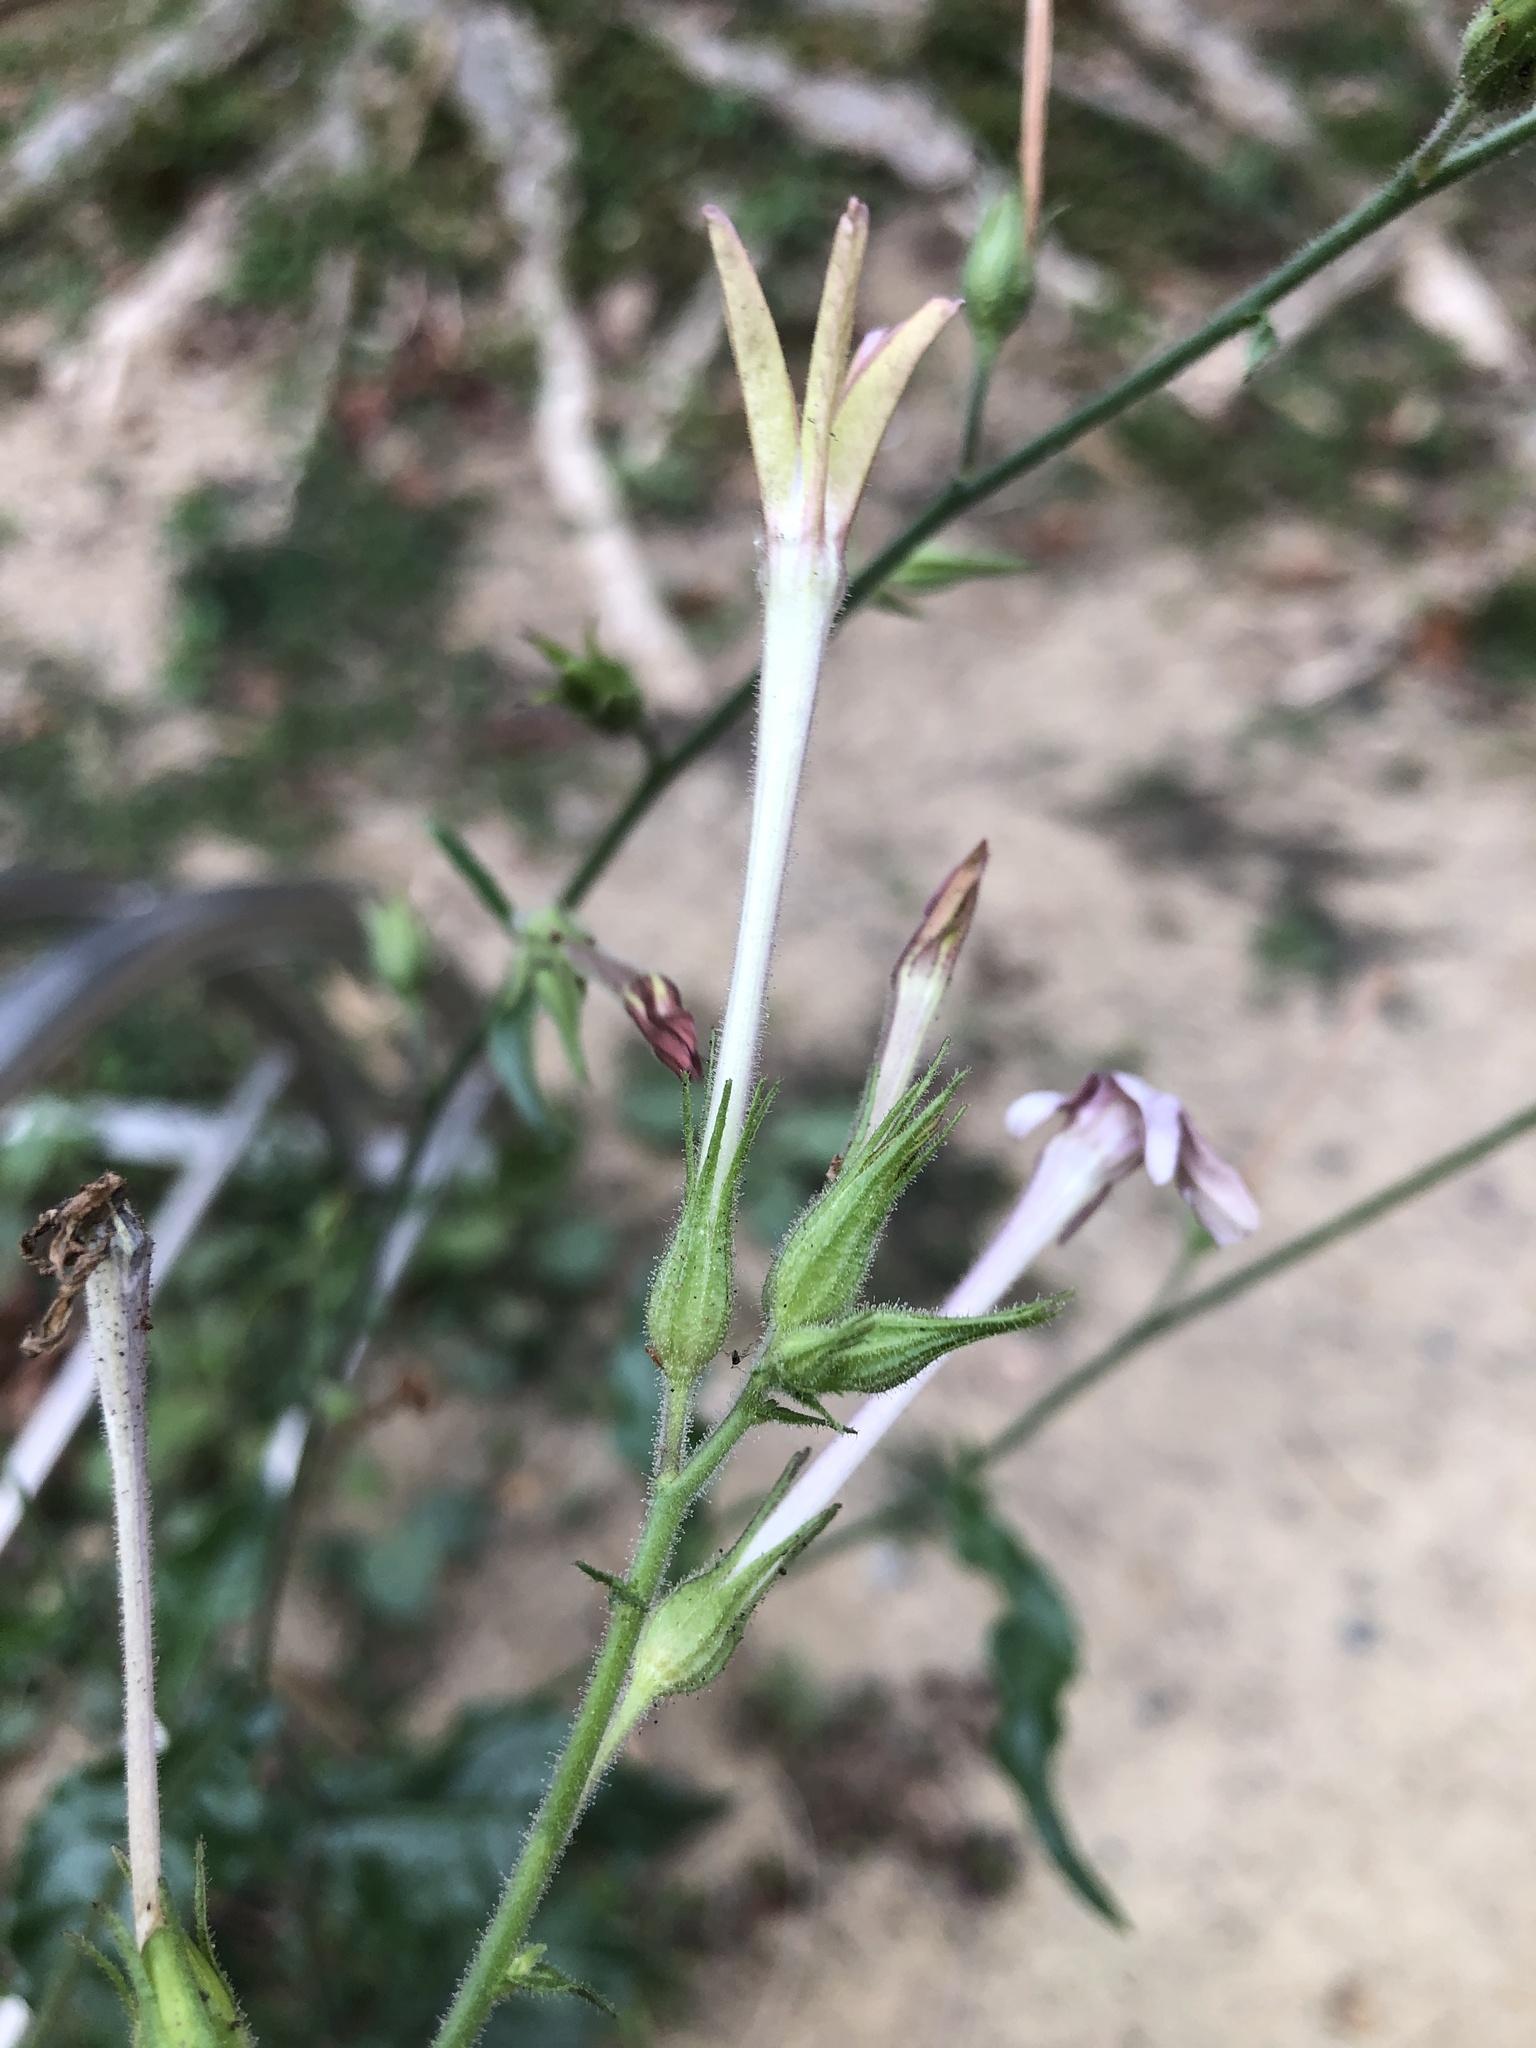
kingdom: Plantae
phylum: Tracheophyta
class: Magnoliopsida
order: Solanales
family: Solanaceae
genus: Nicotiana
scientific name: Nicotiana plumbaginifolia
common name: Tex-mex tobacco
